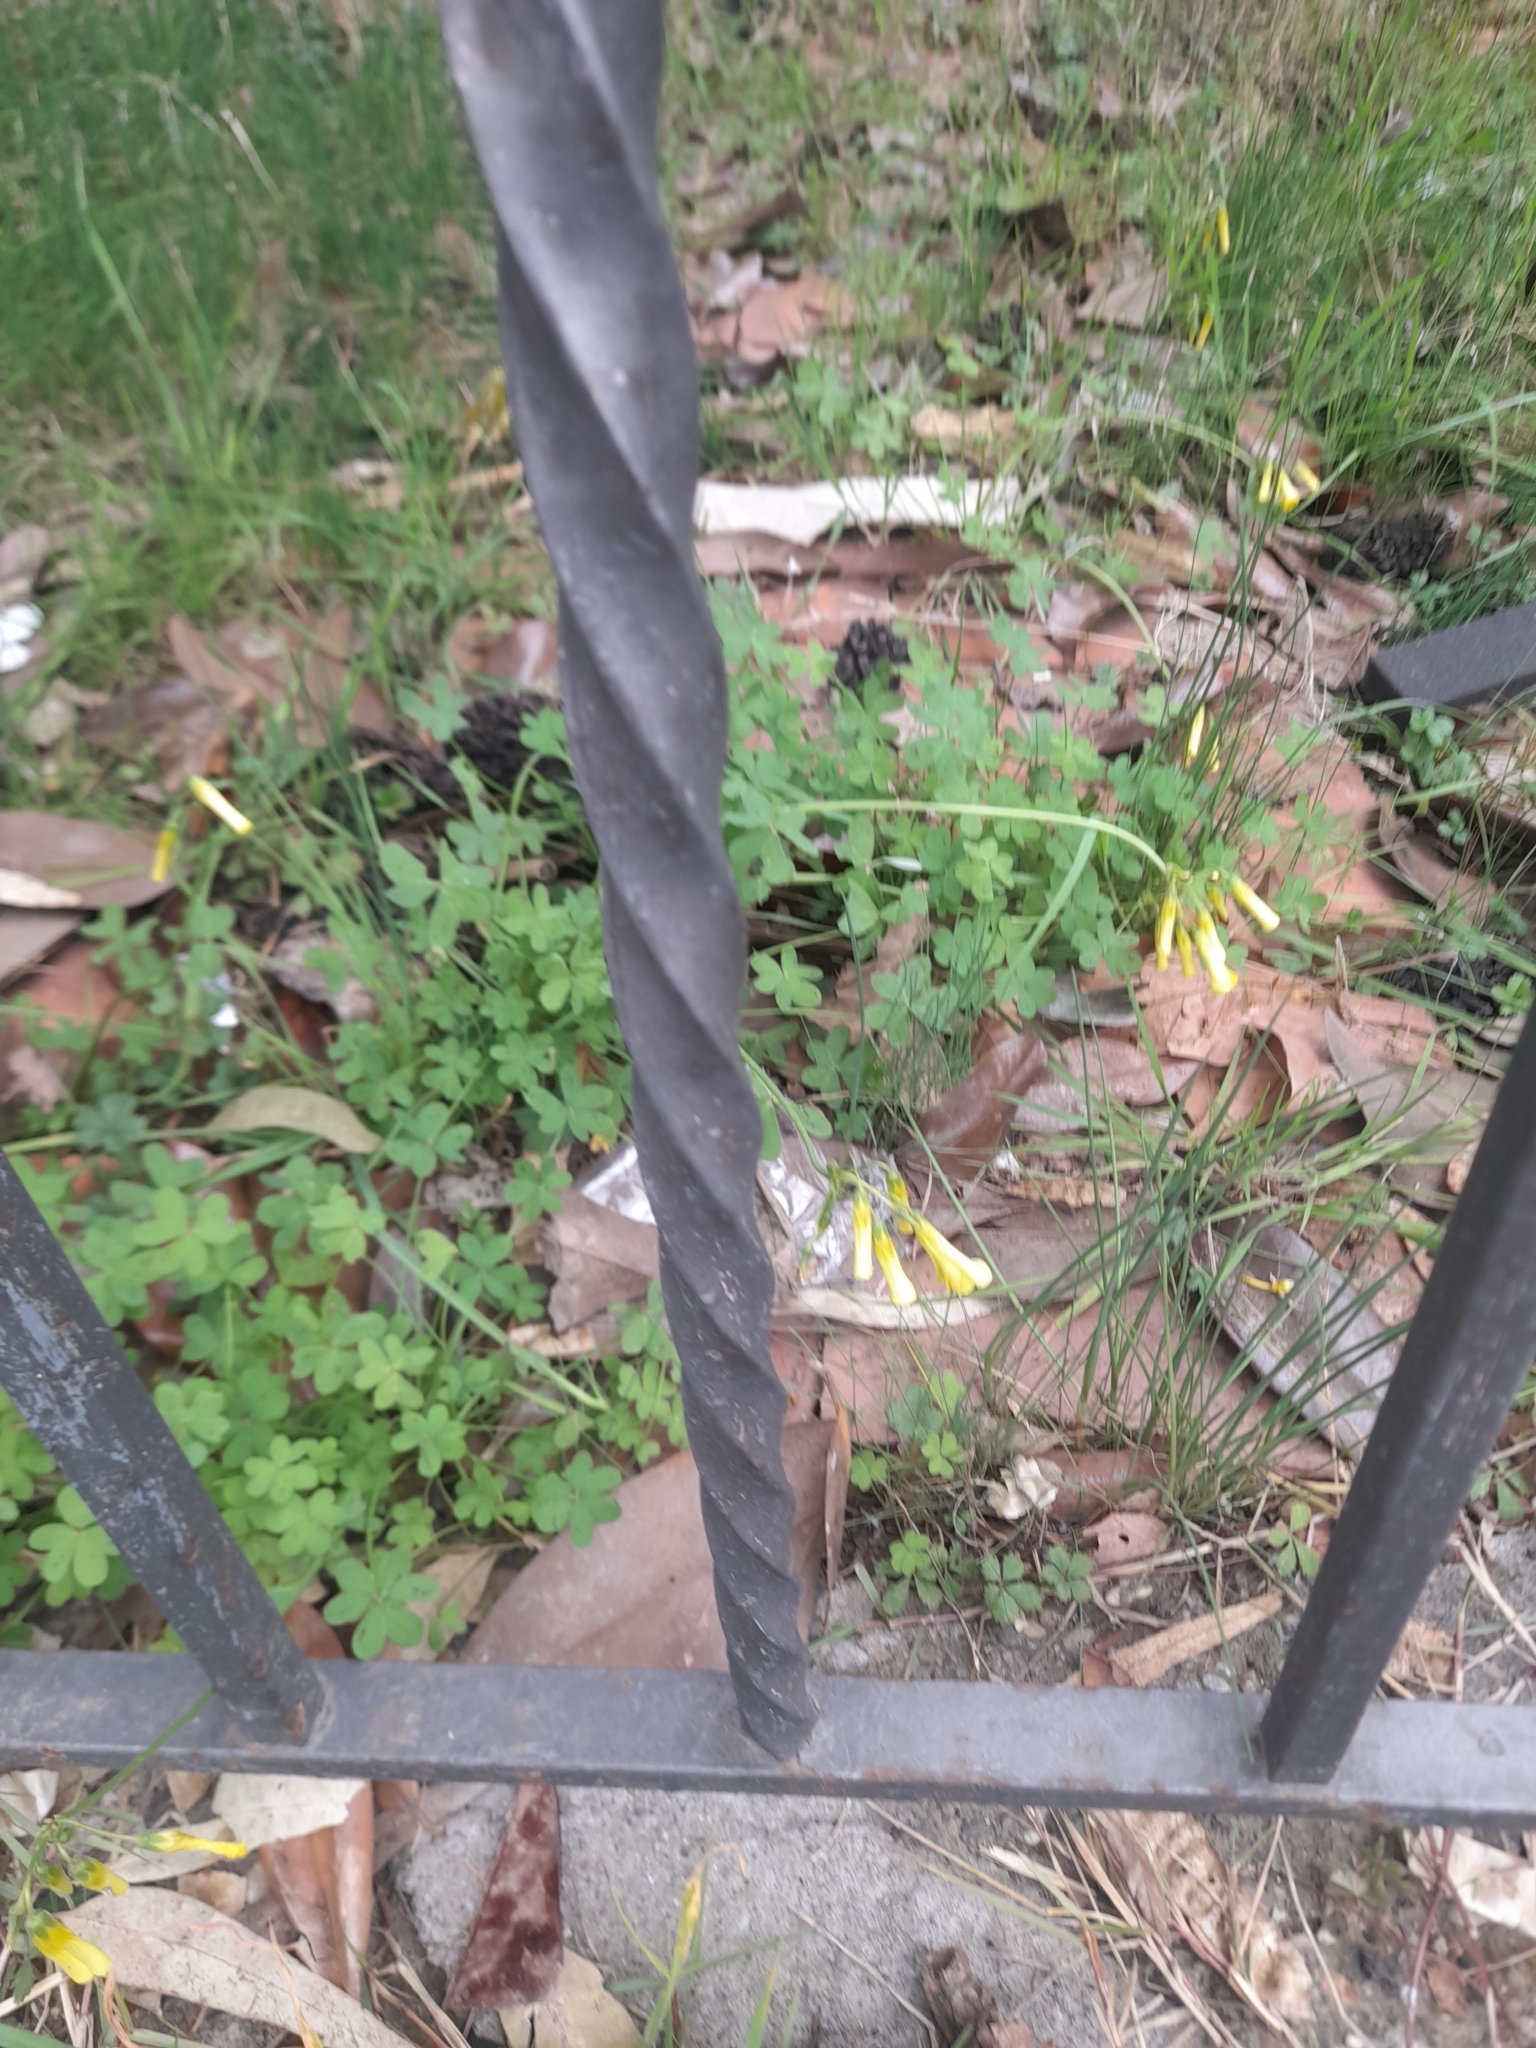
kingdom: Plantae
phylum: Tracheophyta
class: Magnoliopsida
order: Oxalidales
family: Oxalidaceae
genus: Oxalis
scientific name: Oxalis pes-caprae
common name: Bermuda-buttercup
